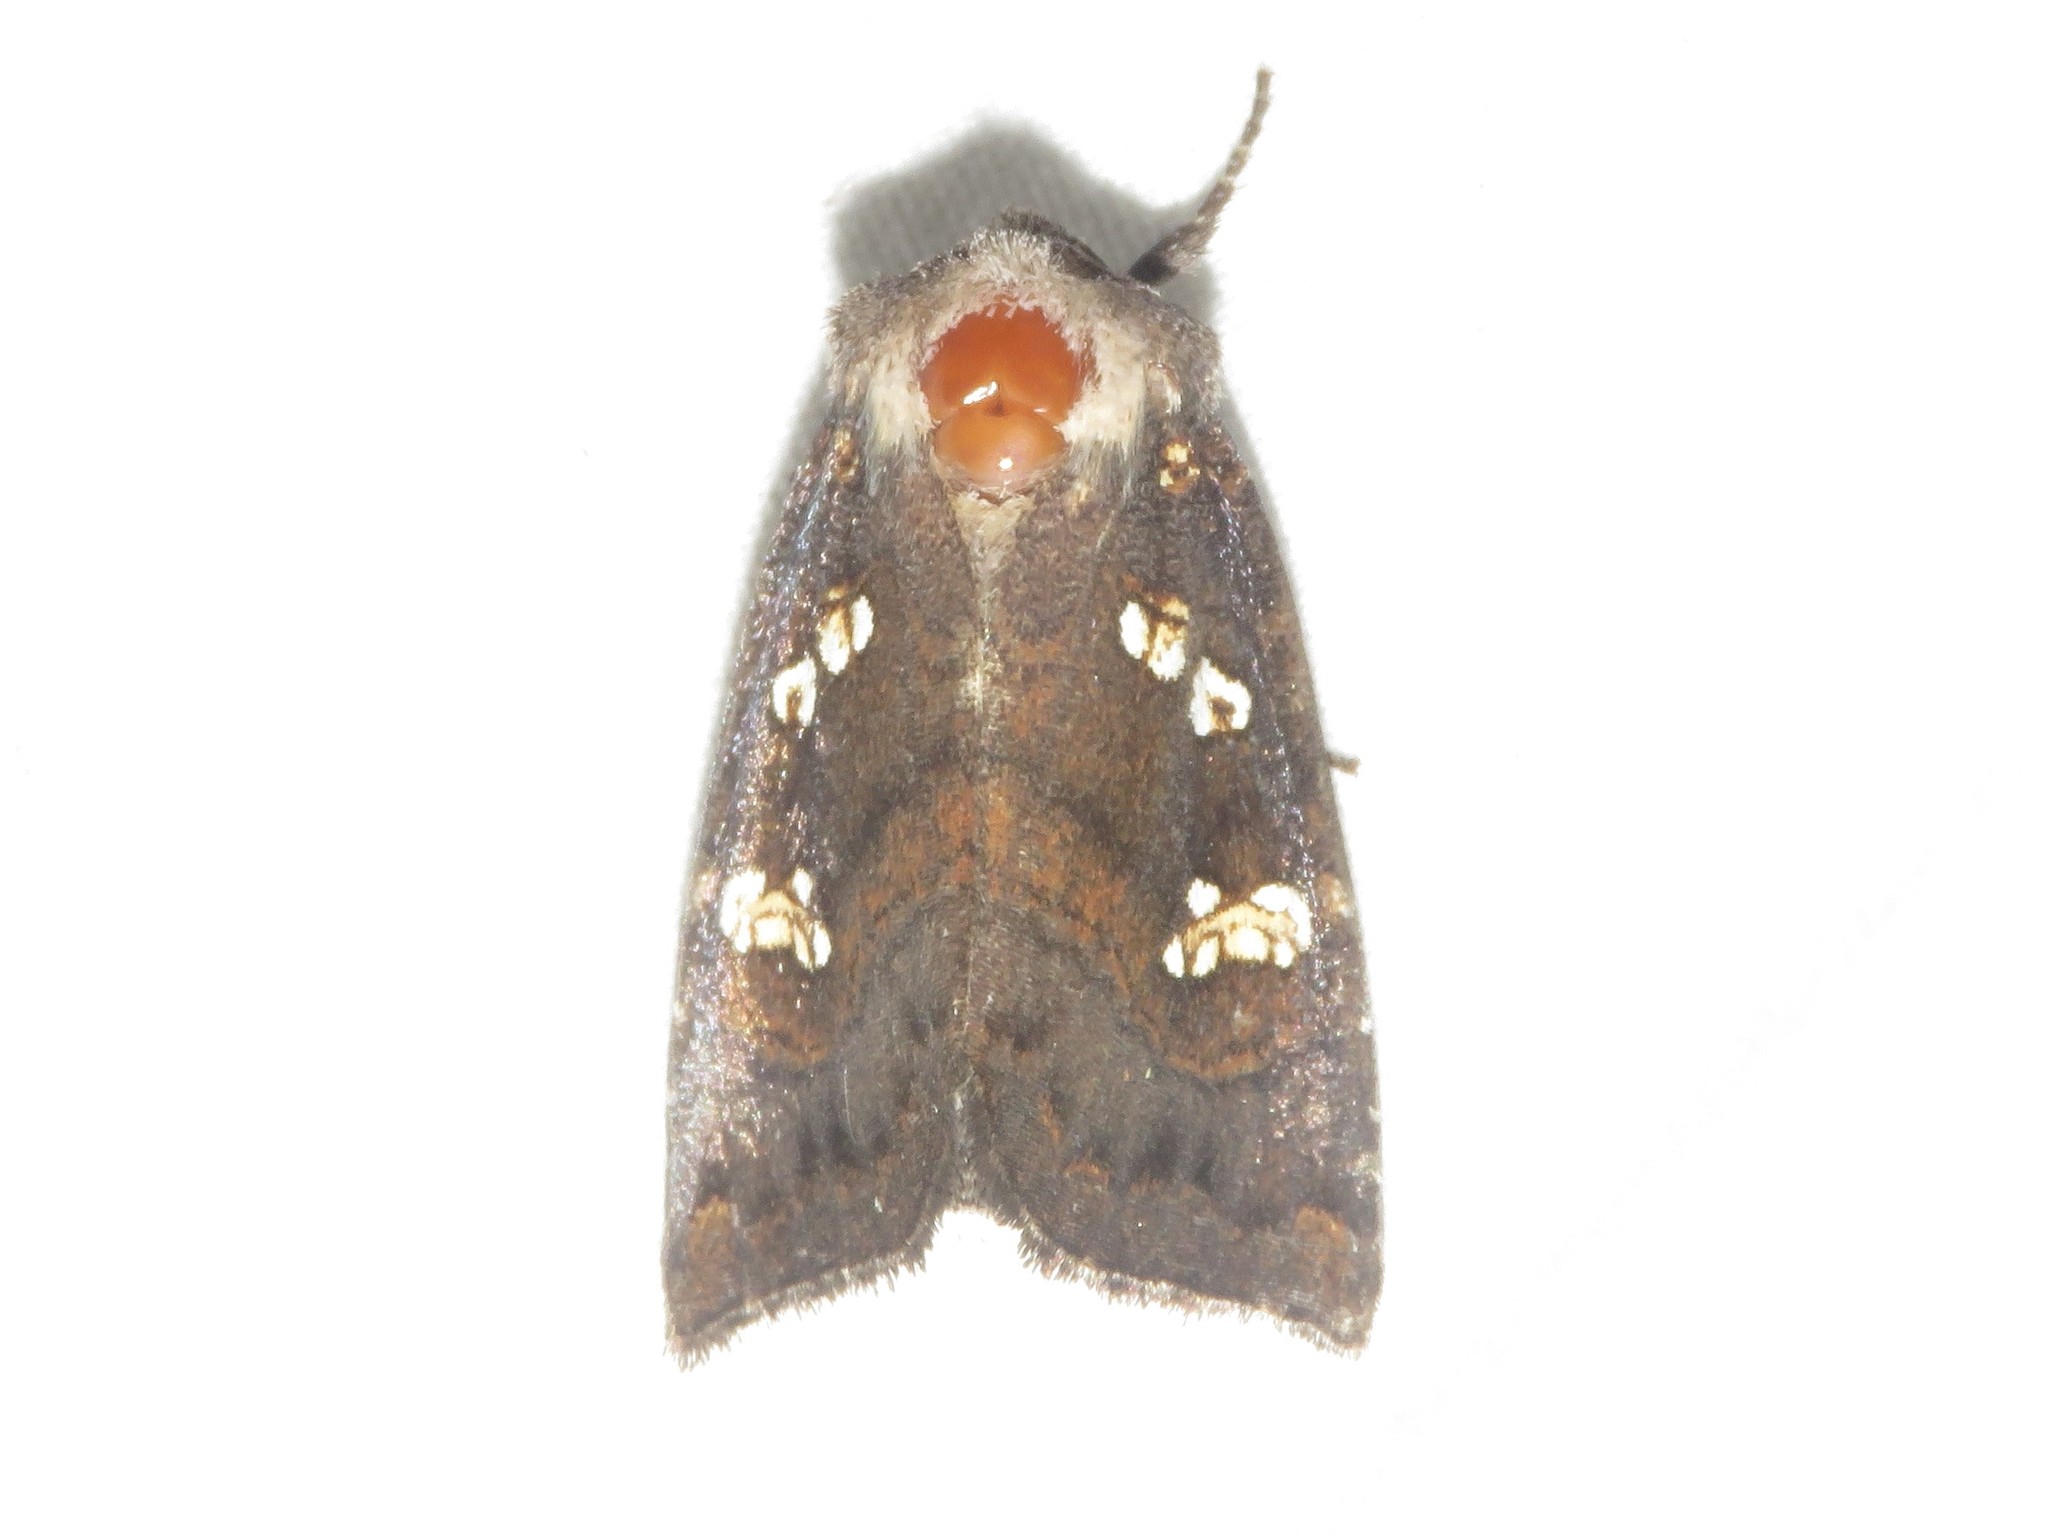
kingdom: Animalia
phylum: Arthropoda
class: Insecta
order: Lepidoptera
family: Noctuidae
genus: Papaipema
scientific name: Papaipema unimoda
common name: Meadow rue borer moth
